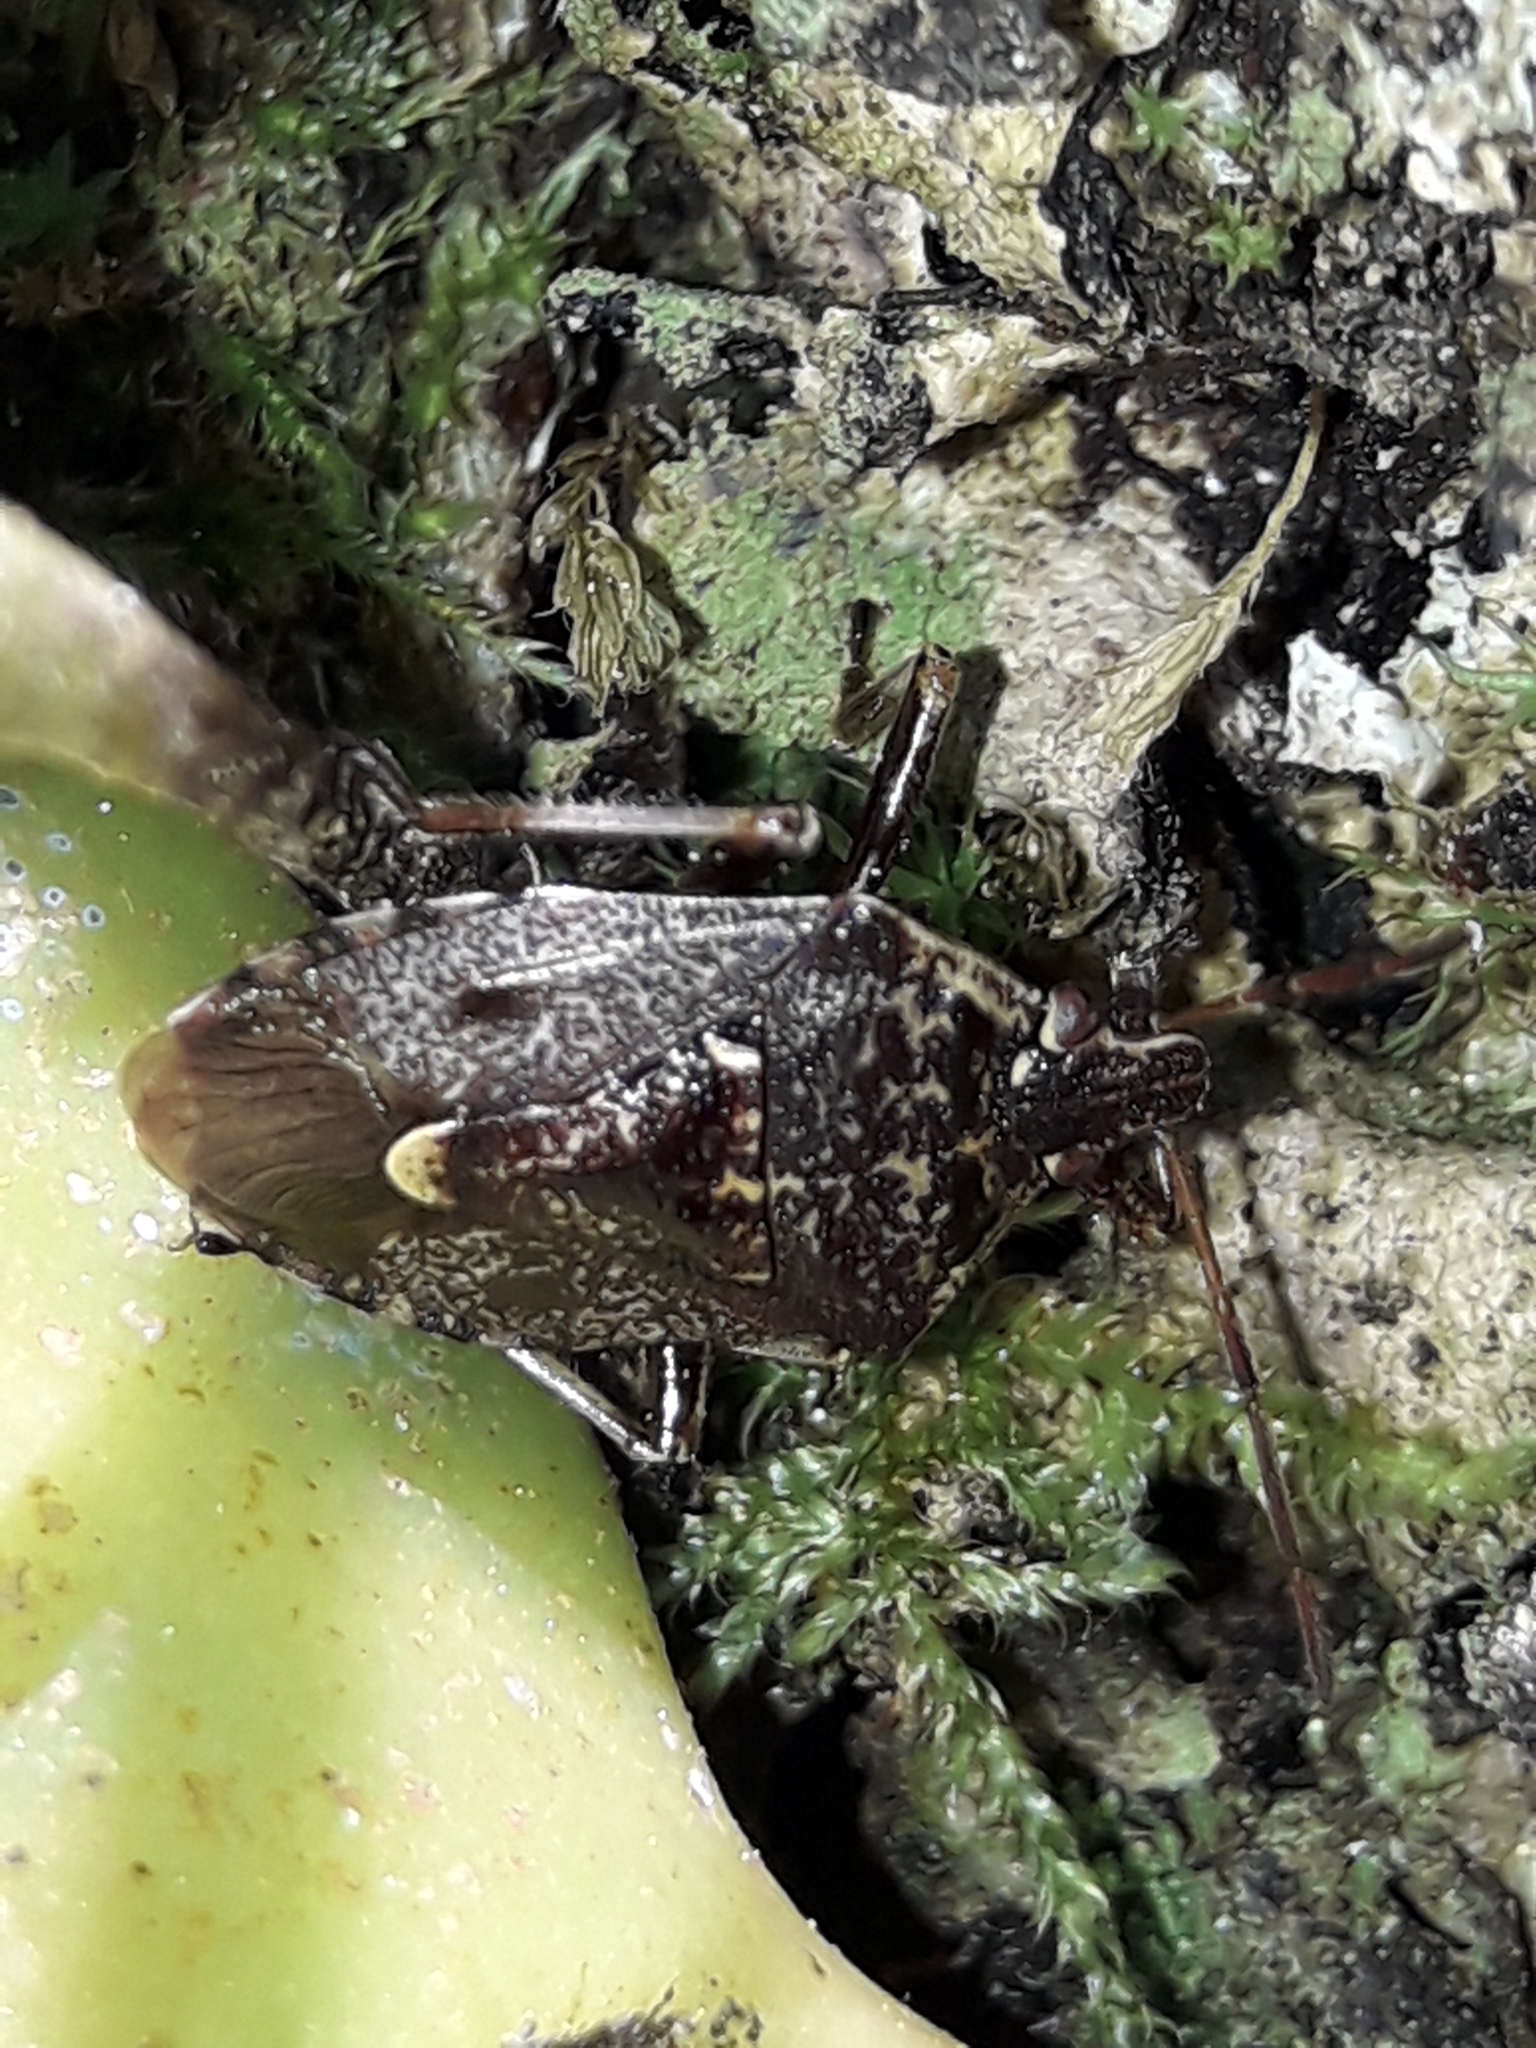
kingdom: Animalia
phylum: Arthropoda
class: Insecta
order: Hemiptera
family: Pentatomidae
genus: Cermatulus
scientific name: Cermatulus nasalis
